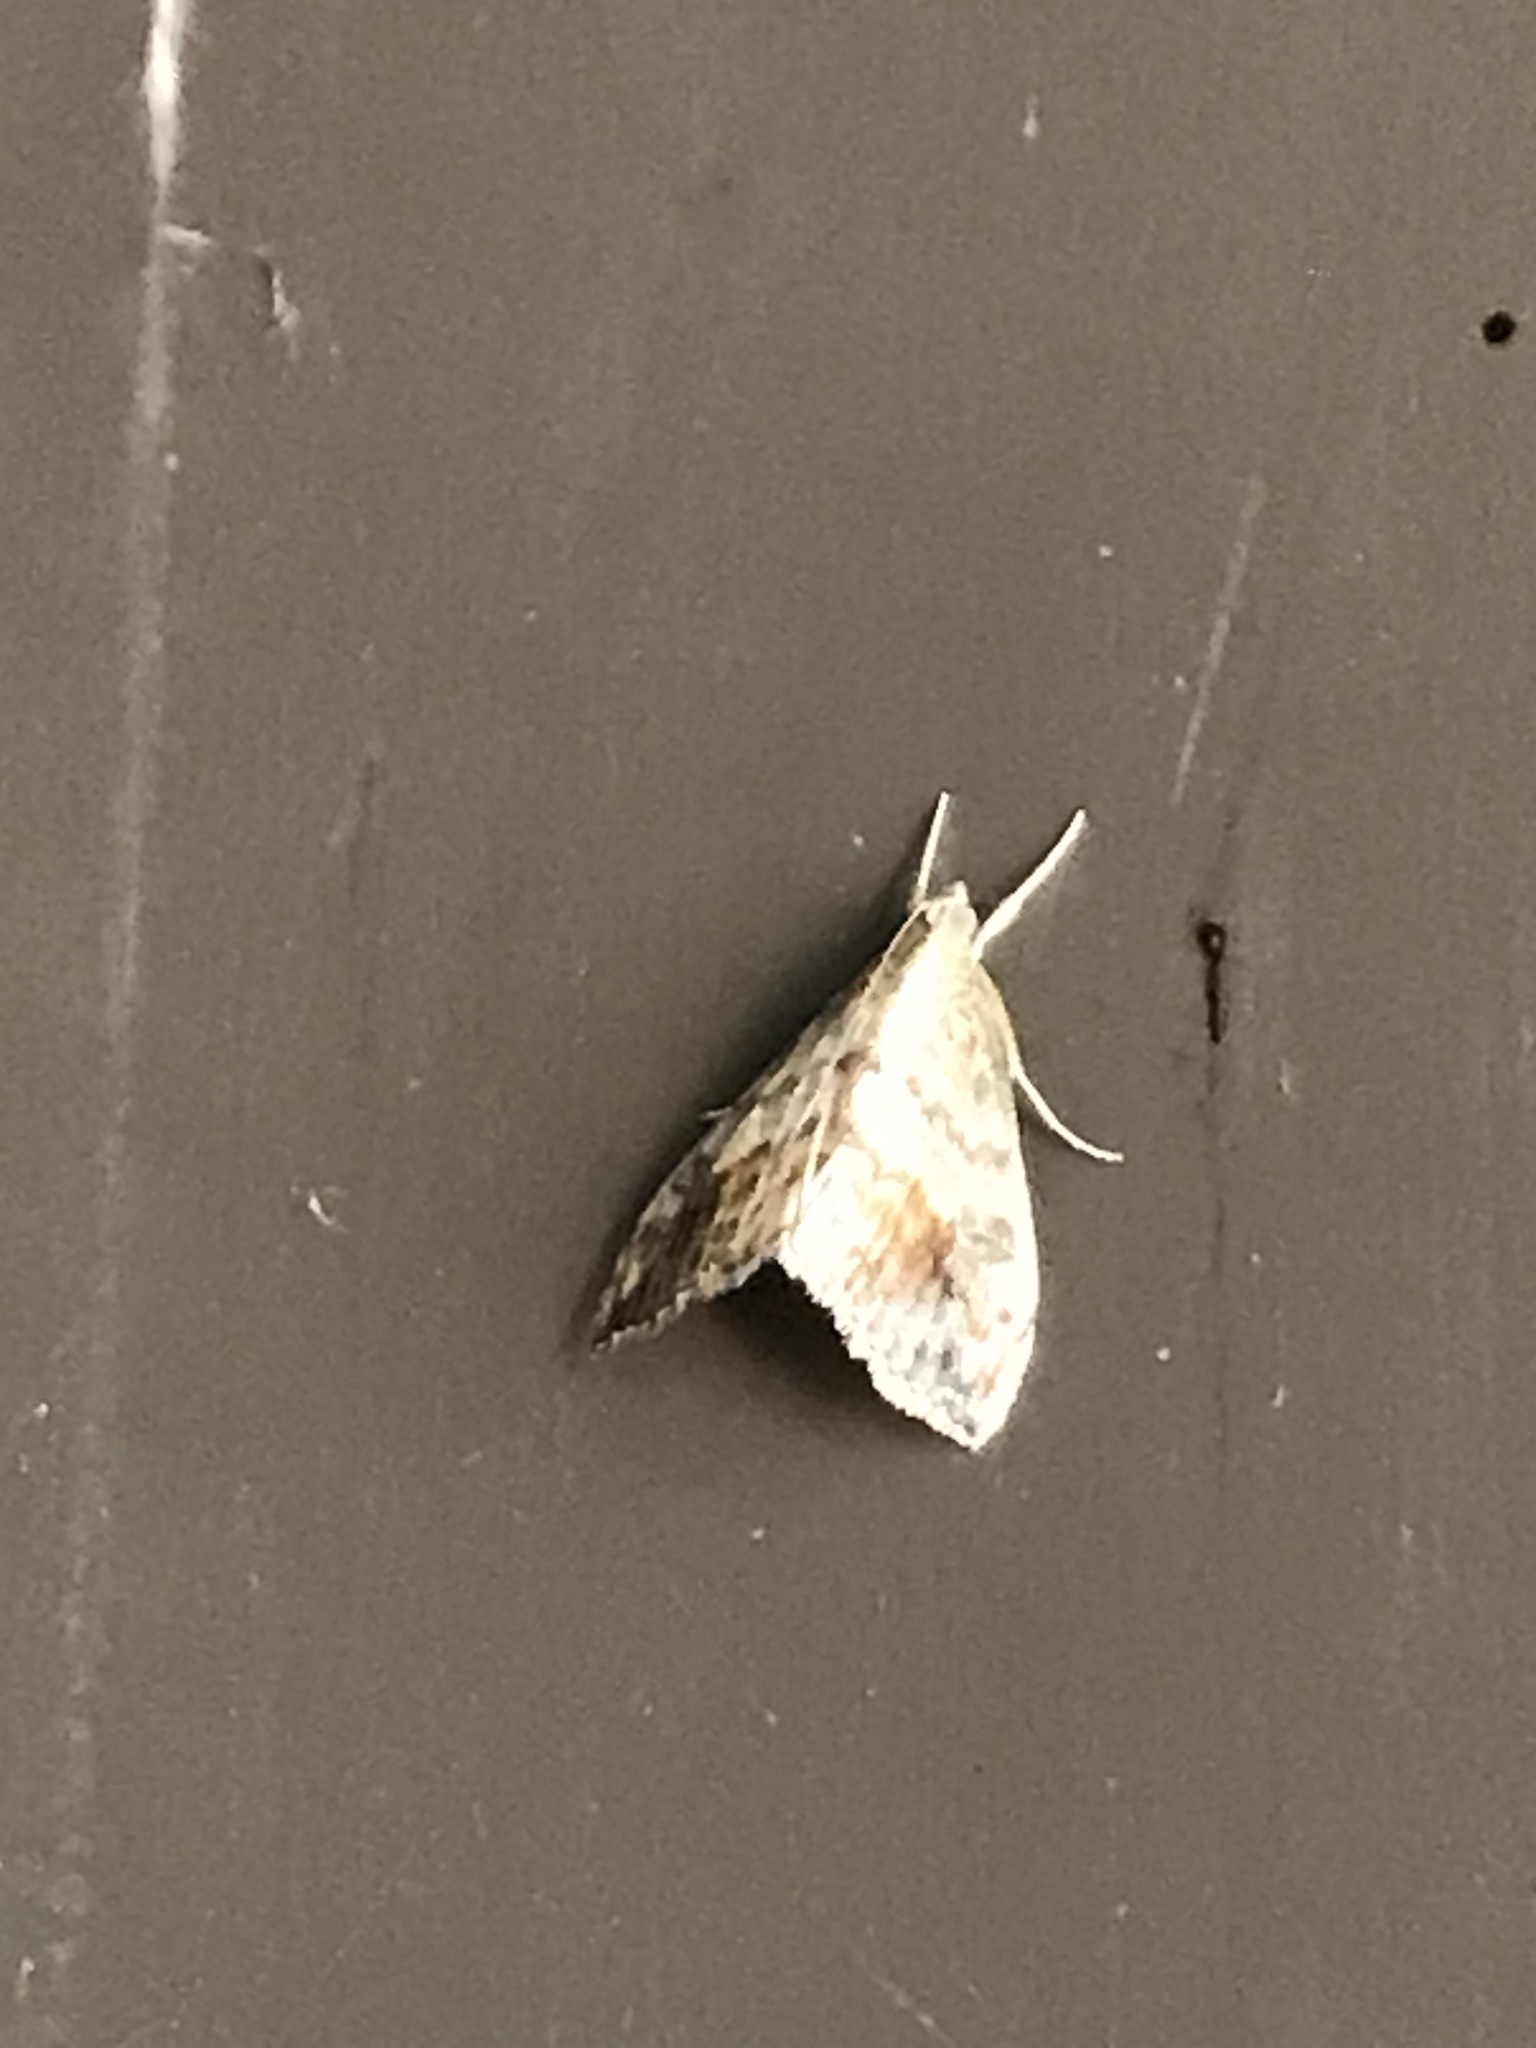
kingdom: Animalia
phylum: Arthropoda
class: Insecta
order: Lepidoptera
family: Crambidae
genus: Evergestis
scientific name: Evergestis rimosalis
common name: Cross-striped cabbageworm moth
